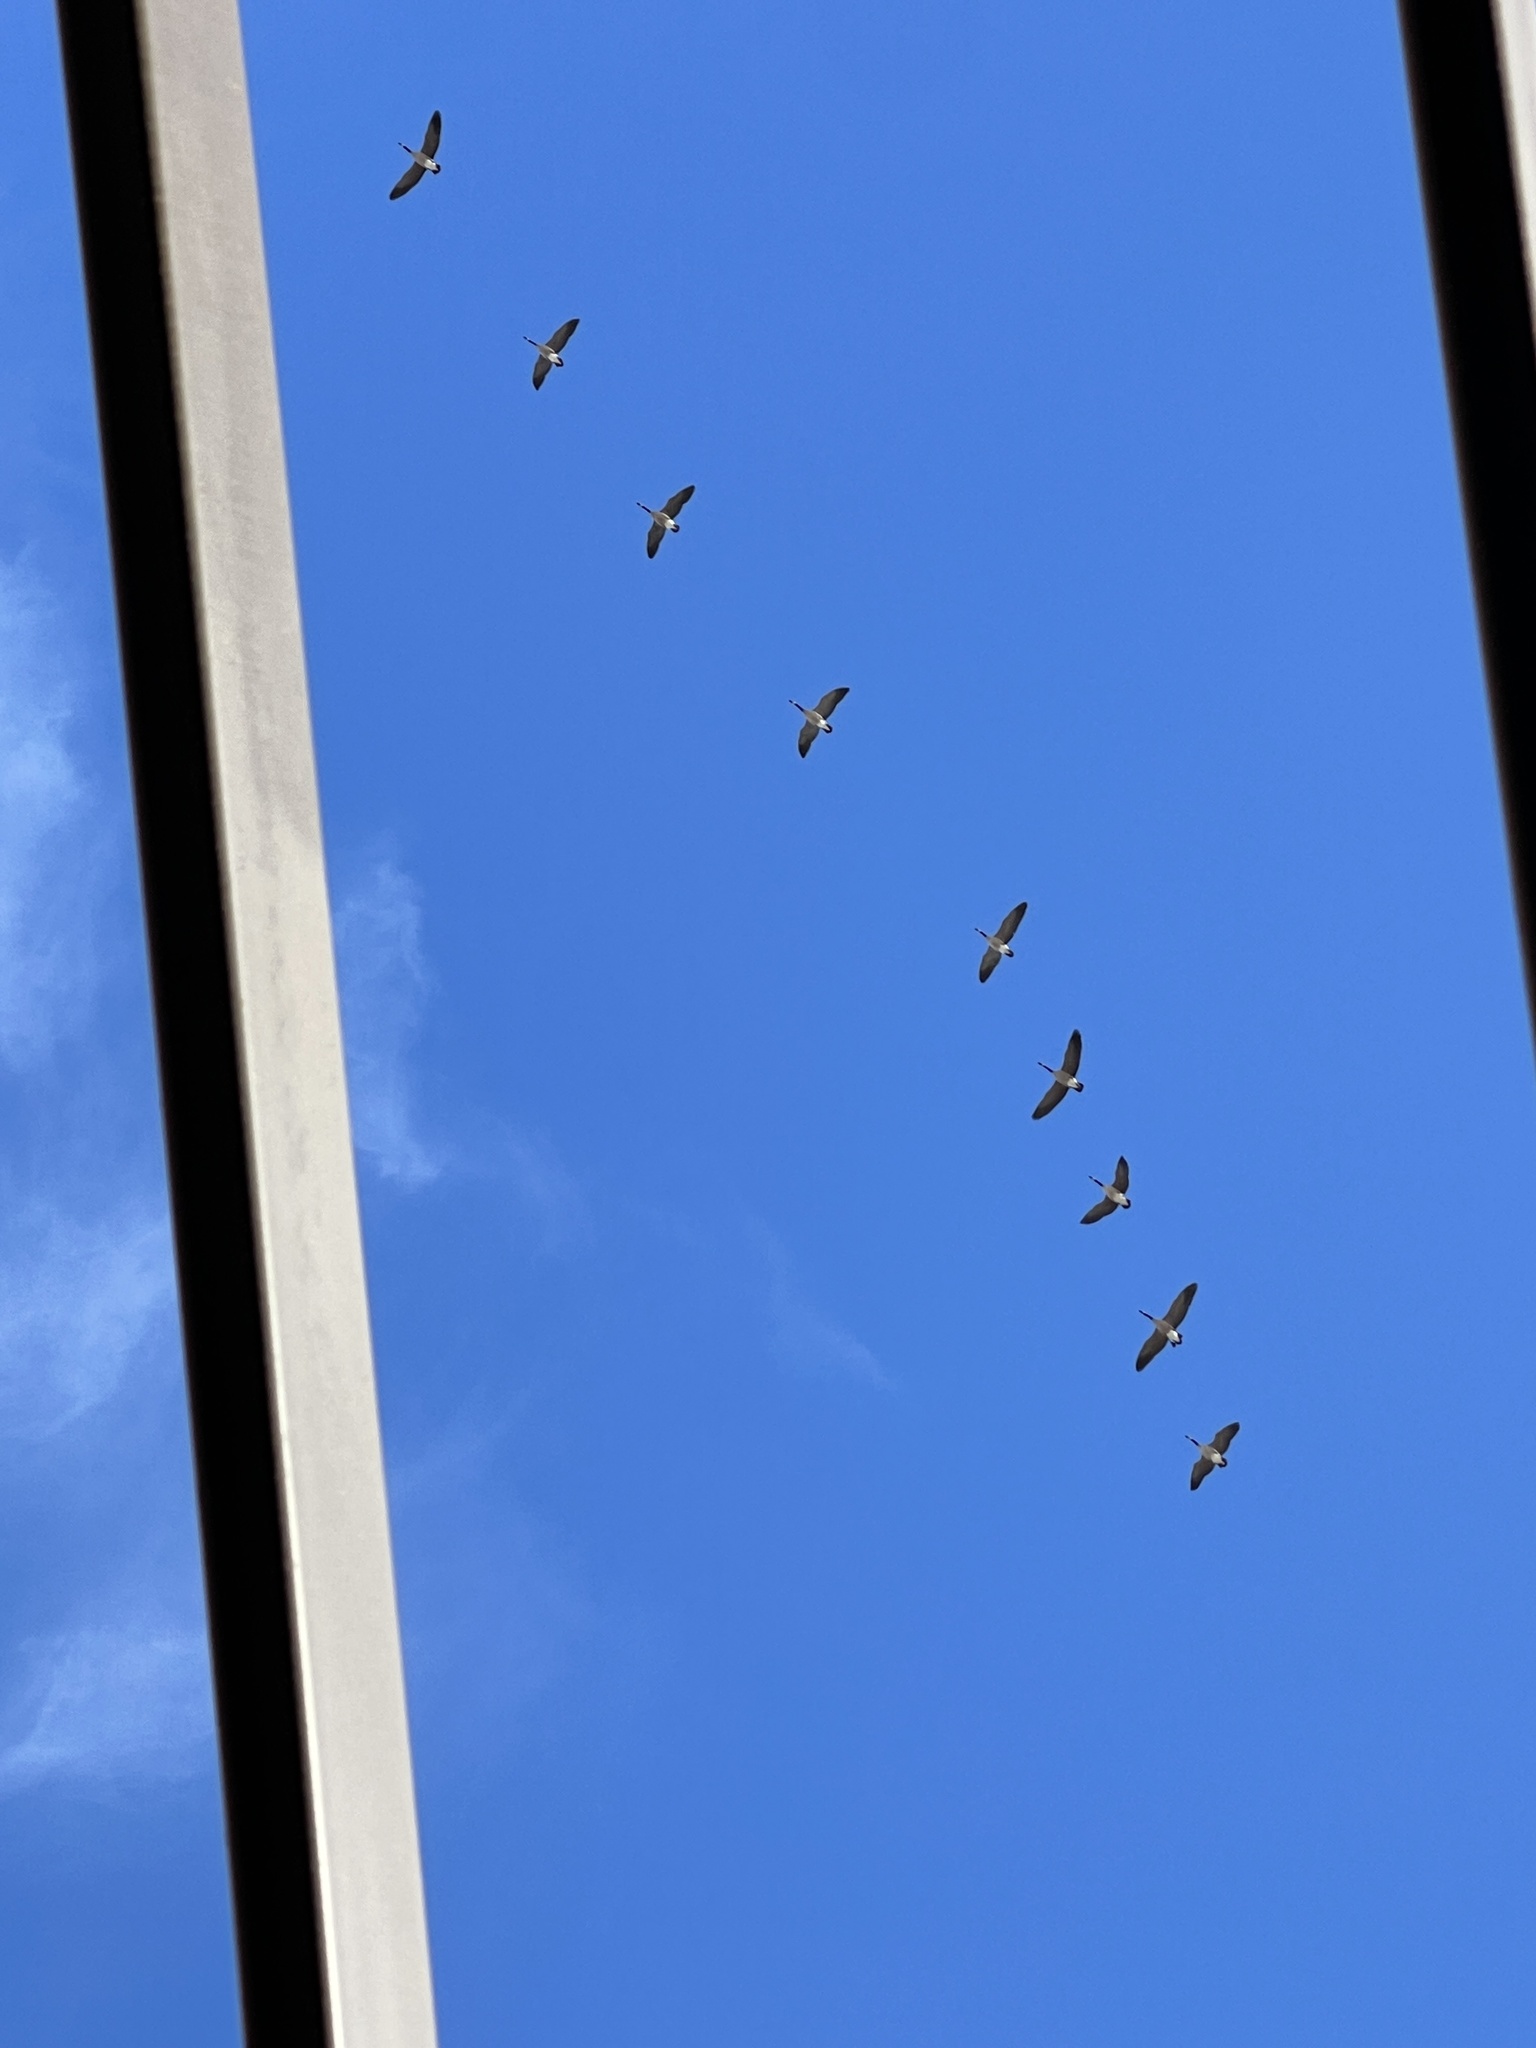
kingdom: Animalia
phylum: Chordata
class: Aves
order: Anseriformes
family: Anatidae
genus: Branta
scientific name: Branta canadensis
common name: Canada goose
